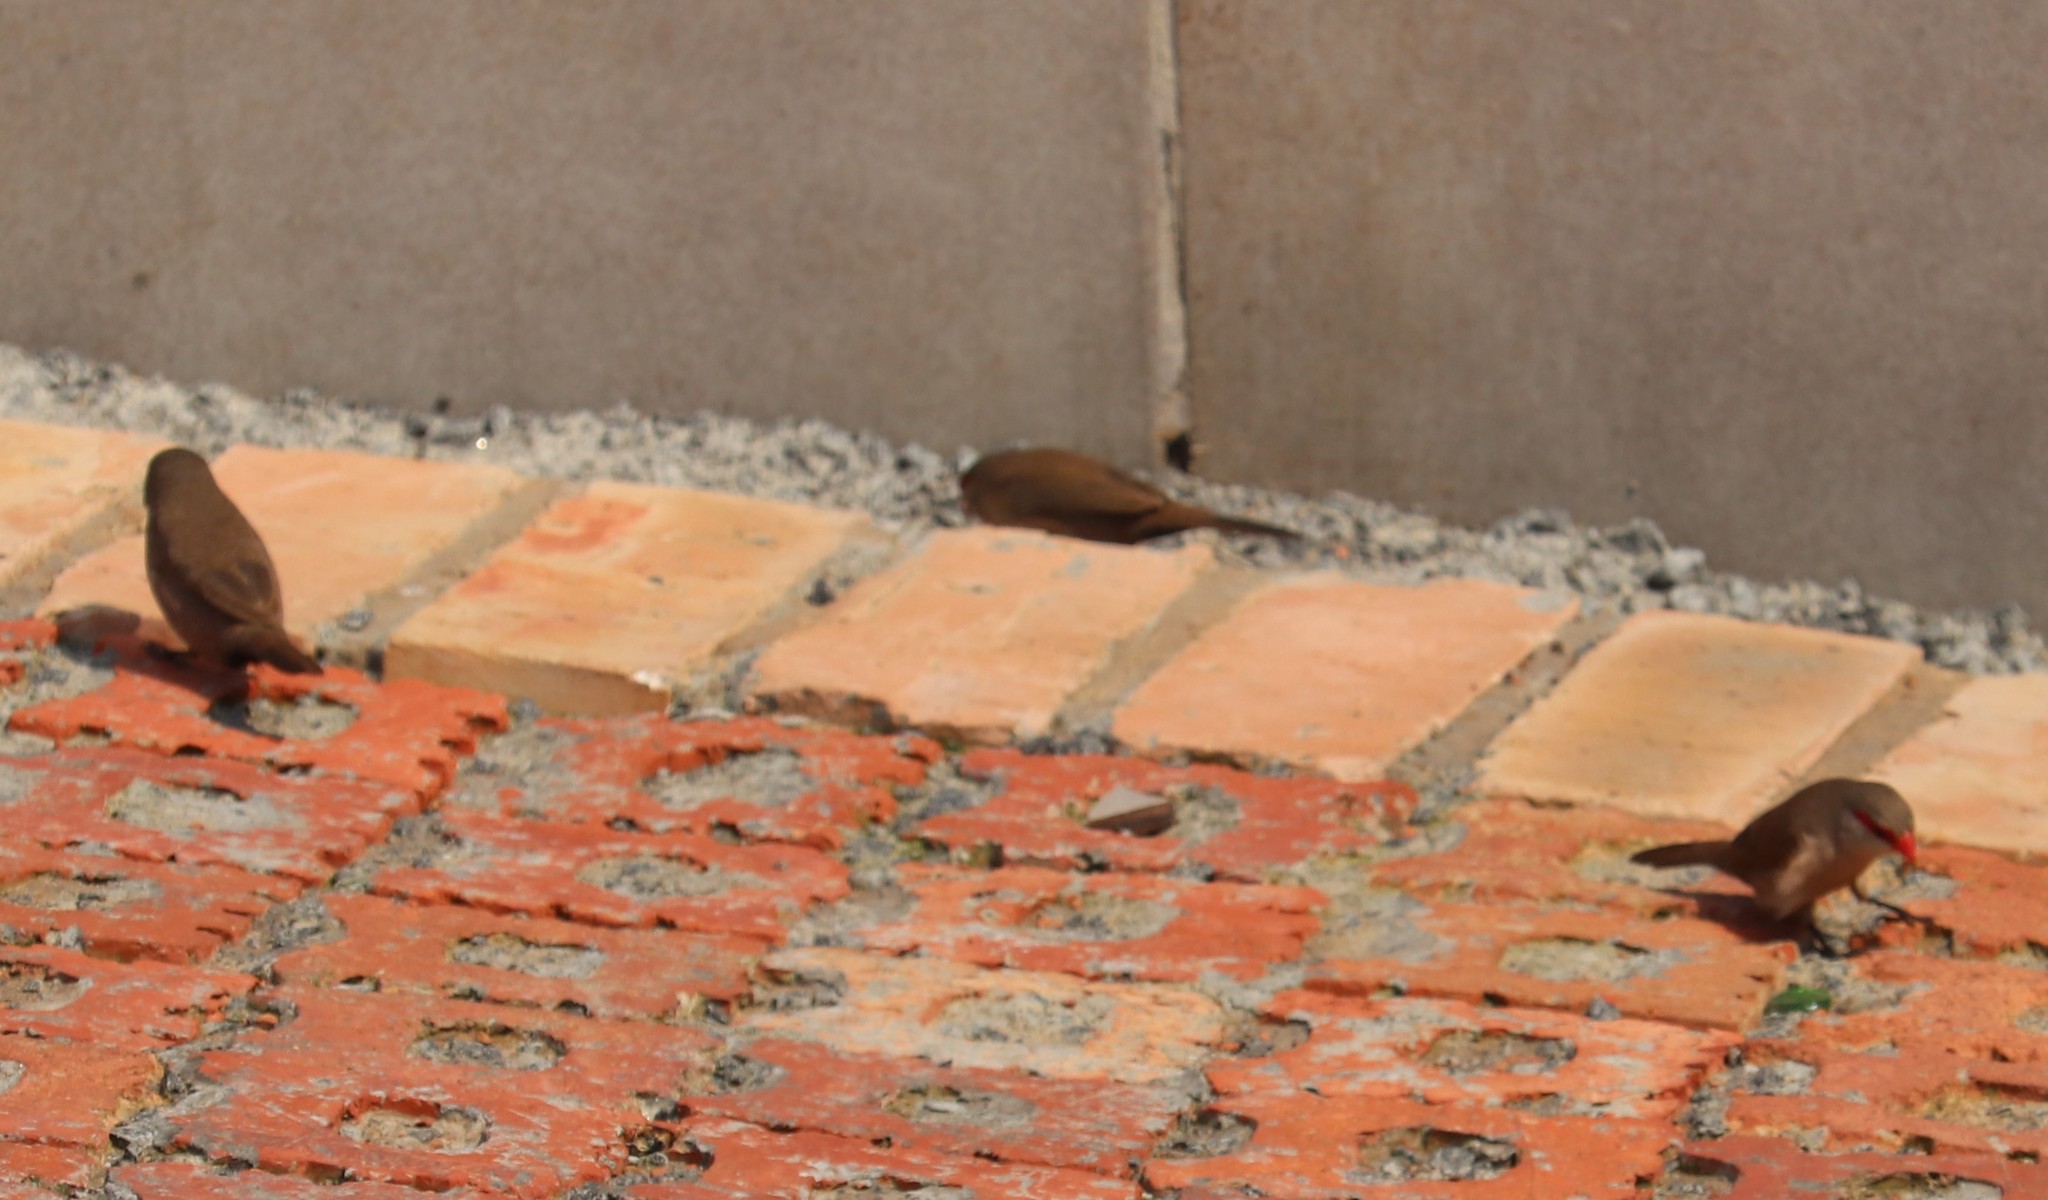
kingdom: Animalia
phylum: Chordata
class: Aves
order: Passeriformes
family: Estrildidae
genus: Estrilda
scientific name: Estrilda astrild
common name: Common waxbill
